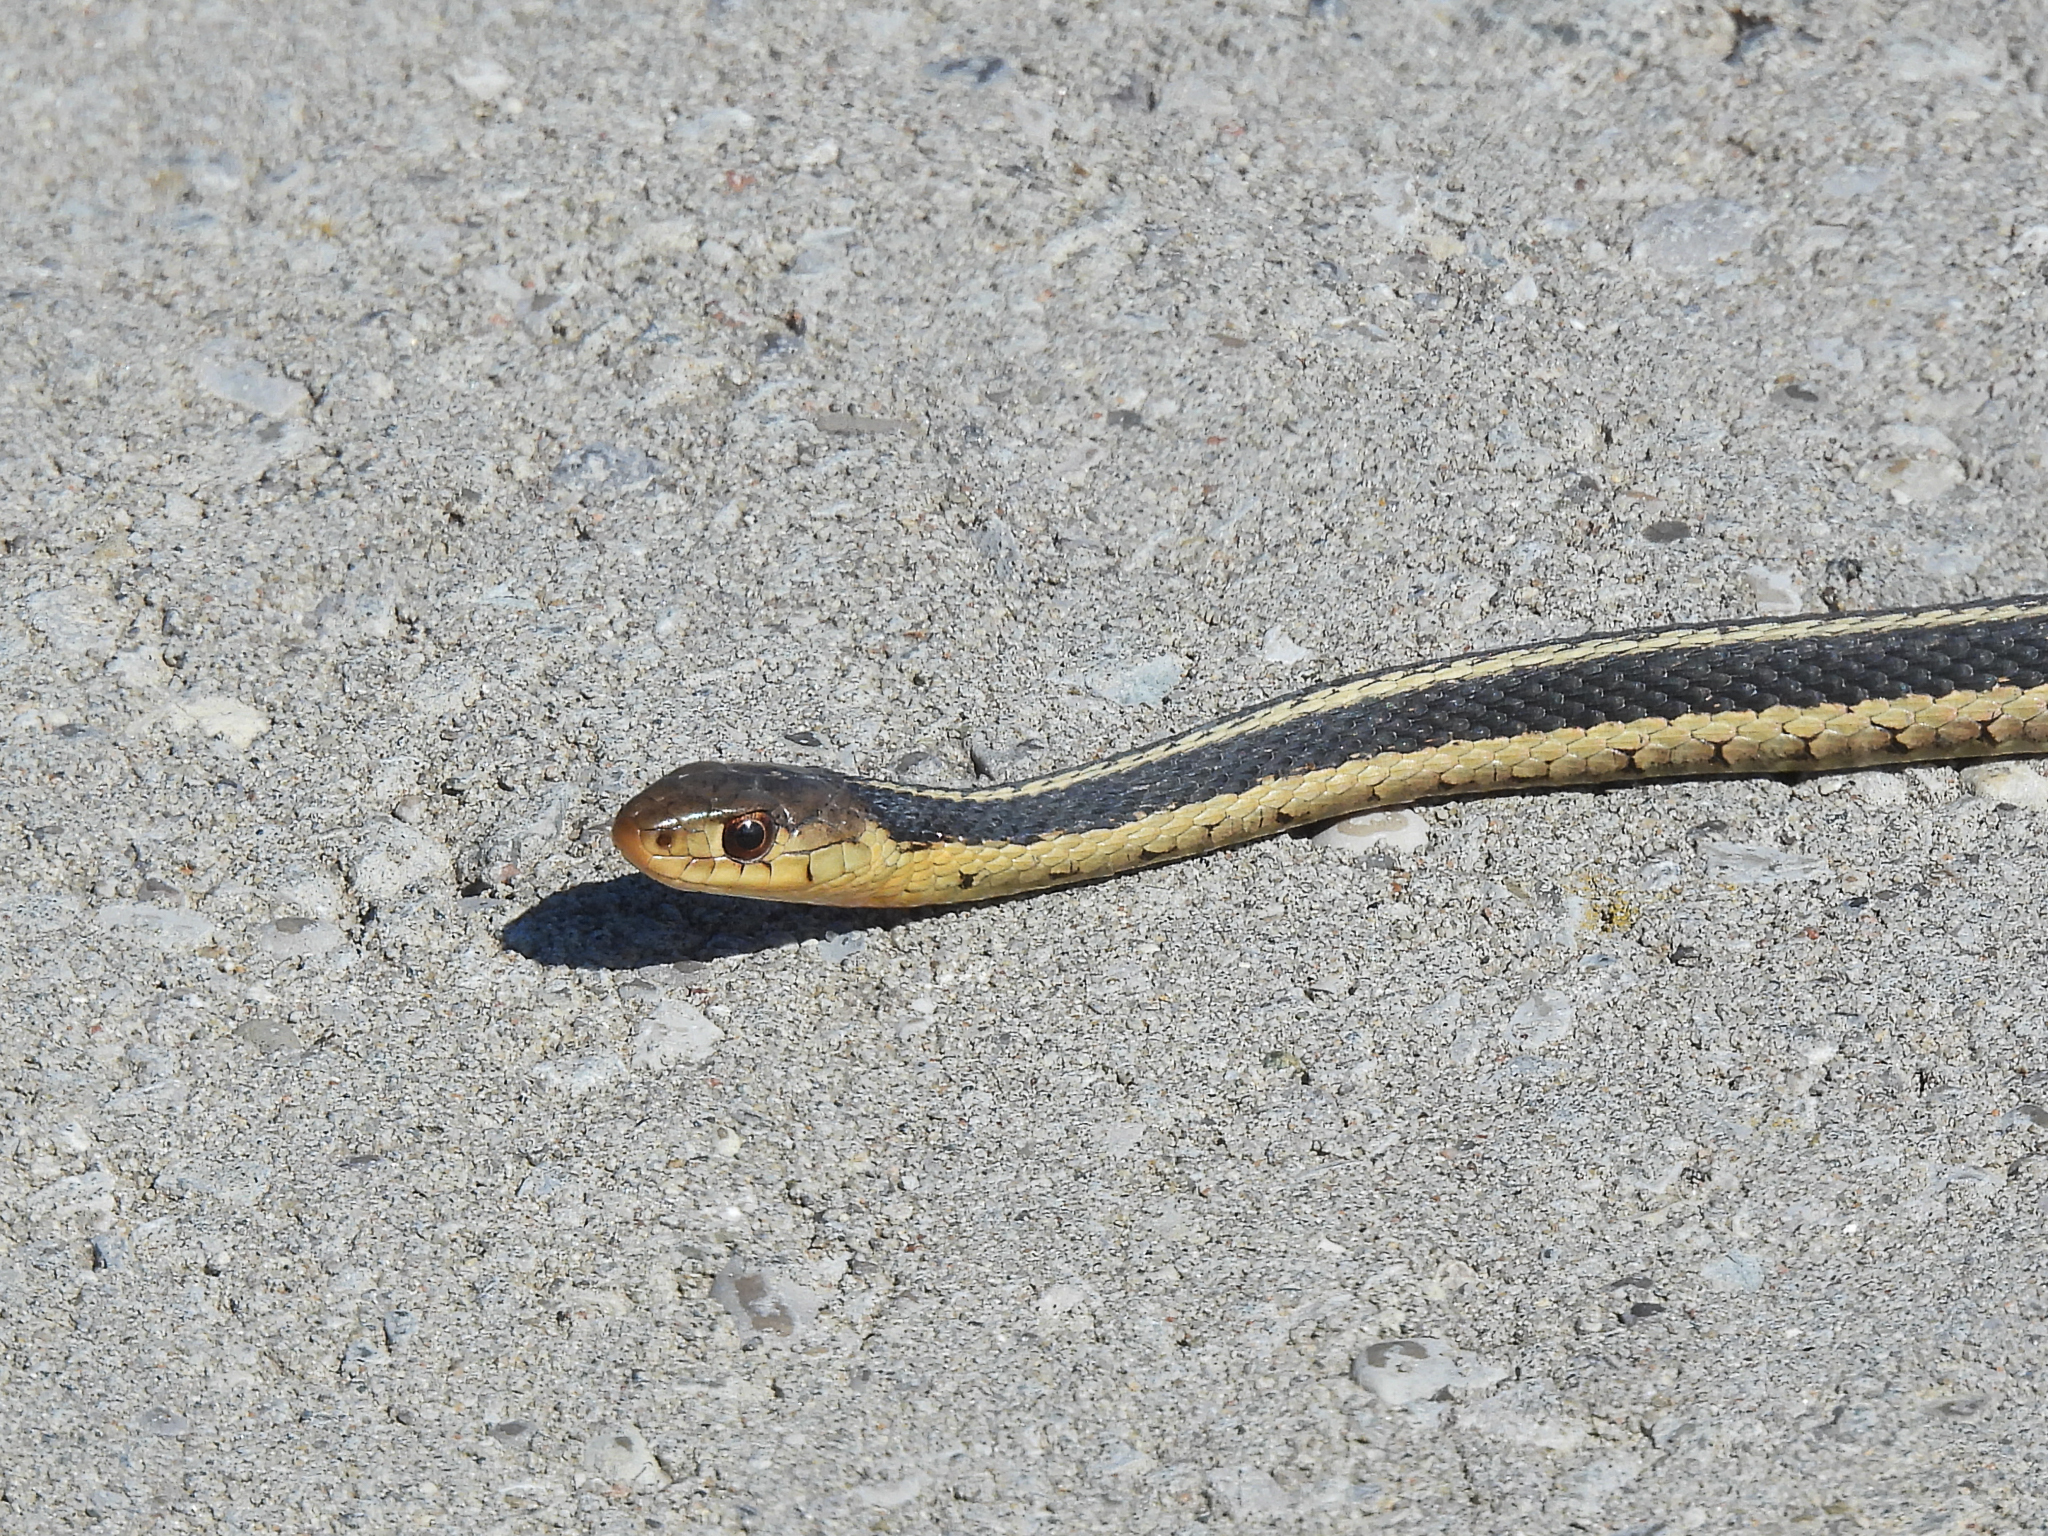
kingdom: Animalia
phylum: Chordata
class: Squamata
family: Colubridae
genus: Thamnophis
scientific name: Thamnophis sirtalis
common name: Common garter snake
